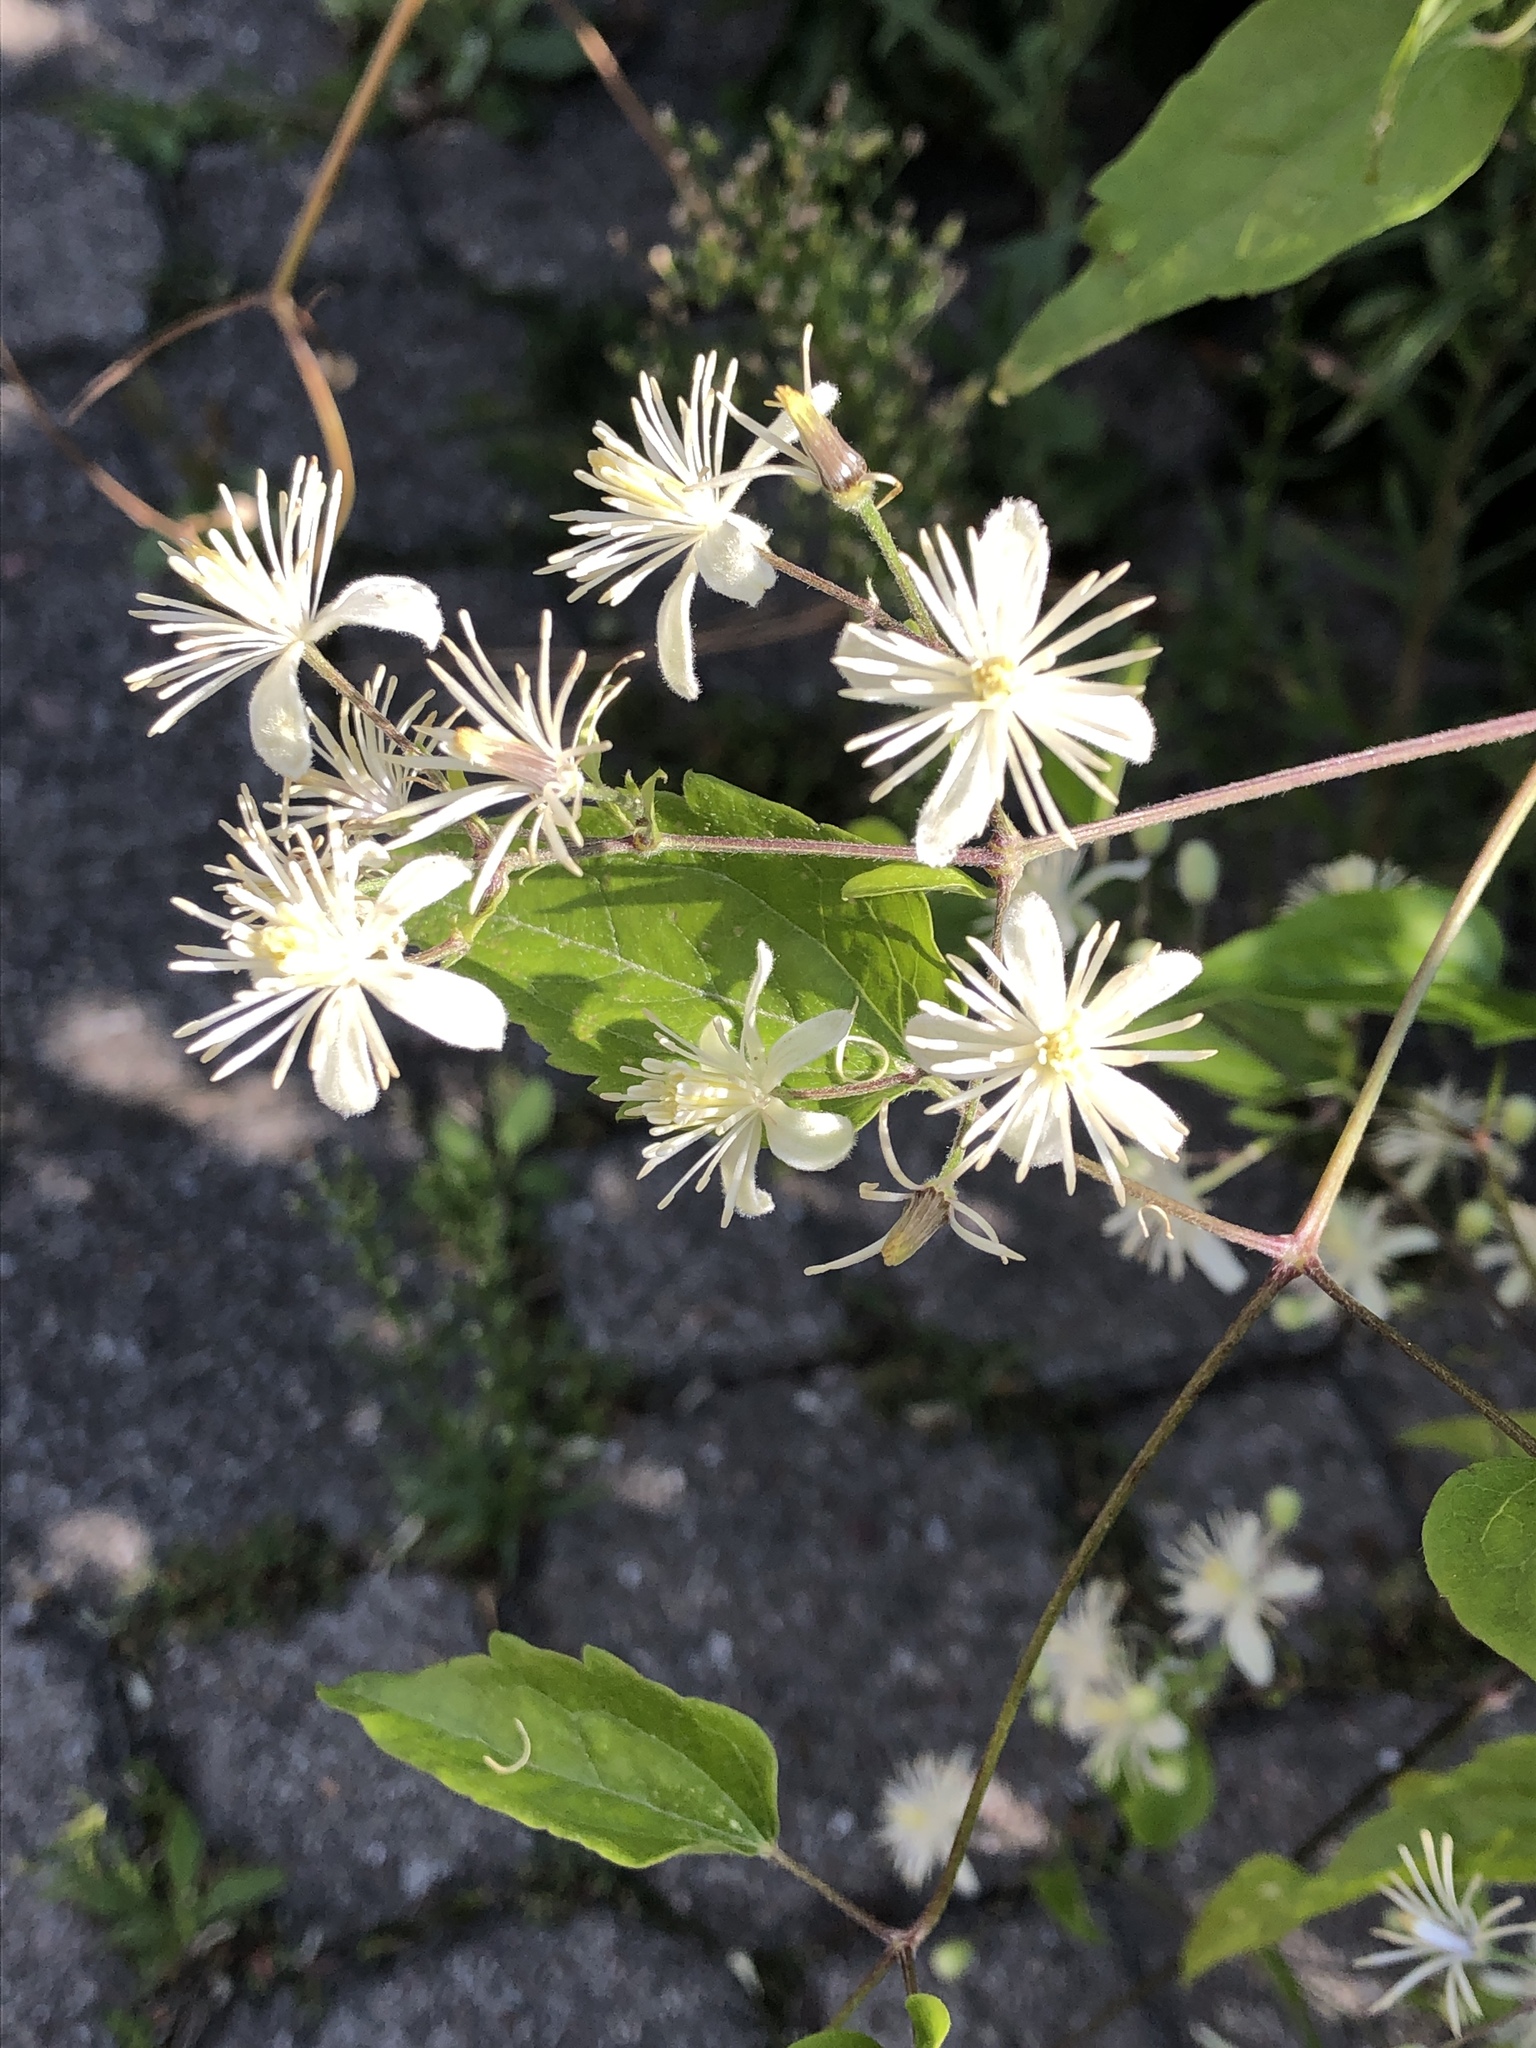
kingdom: Plantae
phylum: Tracheophyta
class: Magnoliopsida
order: Ranunculales
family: Ranunculaceae
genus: Clematis
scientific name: Clematis vitalba
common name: Evergreen clematis
